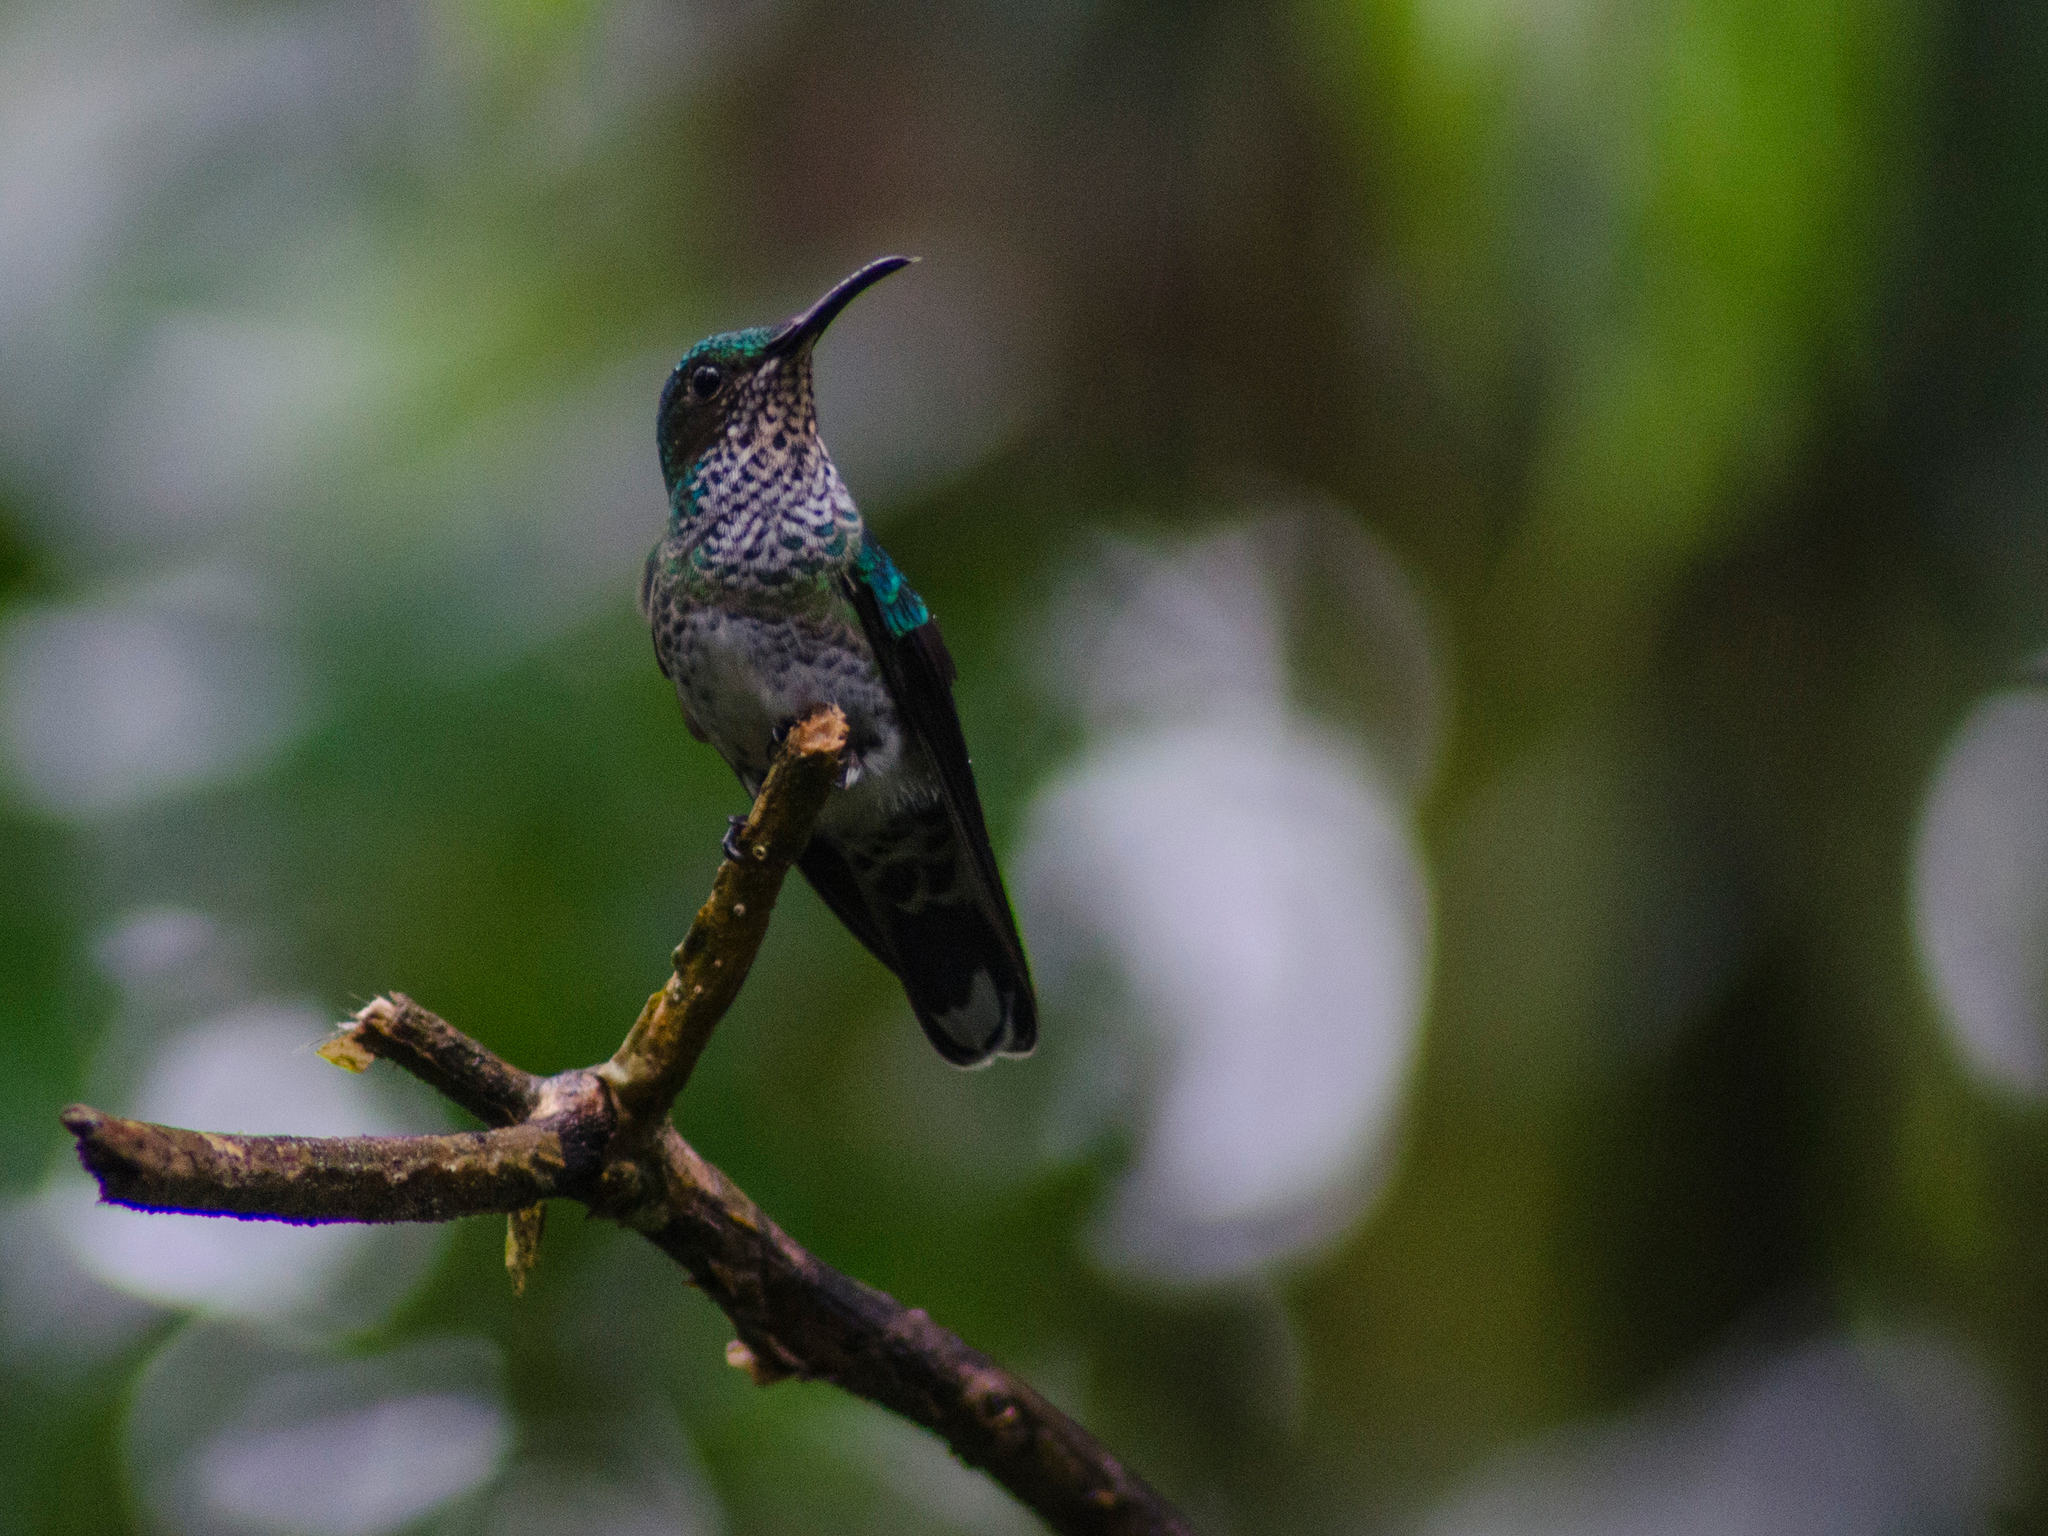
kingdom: Animalia
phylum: Chordata
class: Aves
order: Apodiformes
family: Trochilidae
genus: Florisuga
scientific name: Florisuga mellivora
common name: White-necked jacobin
